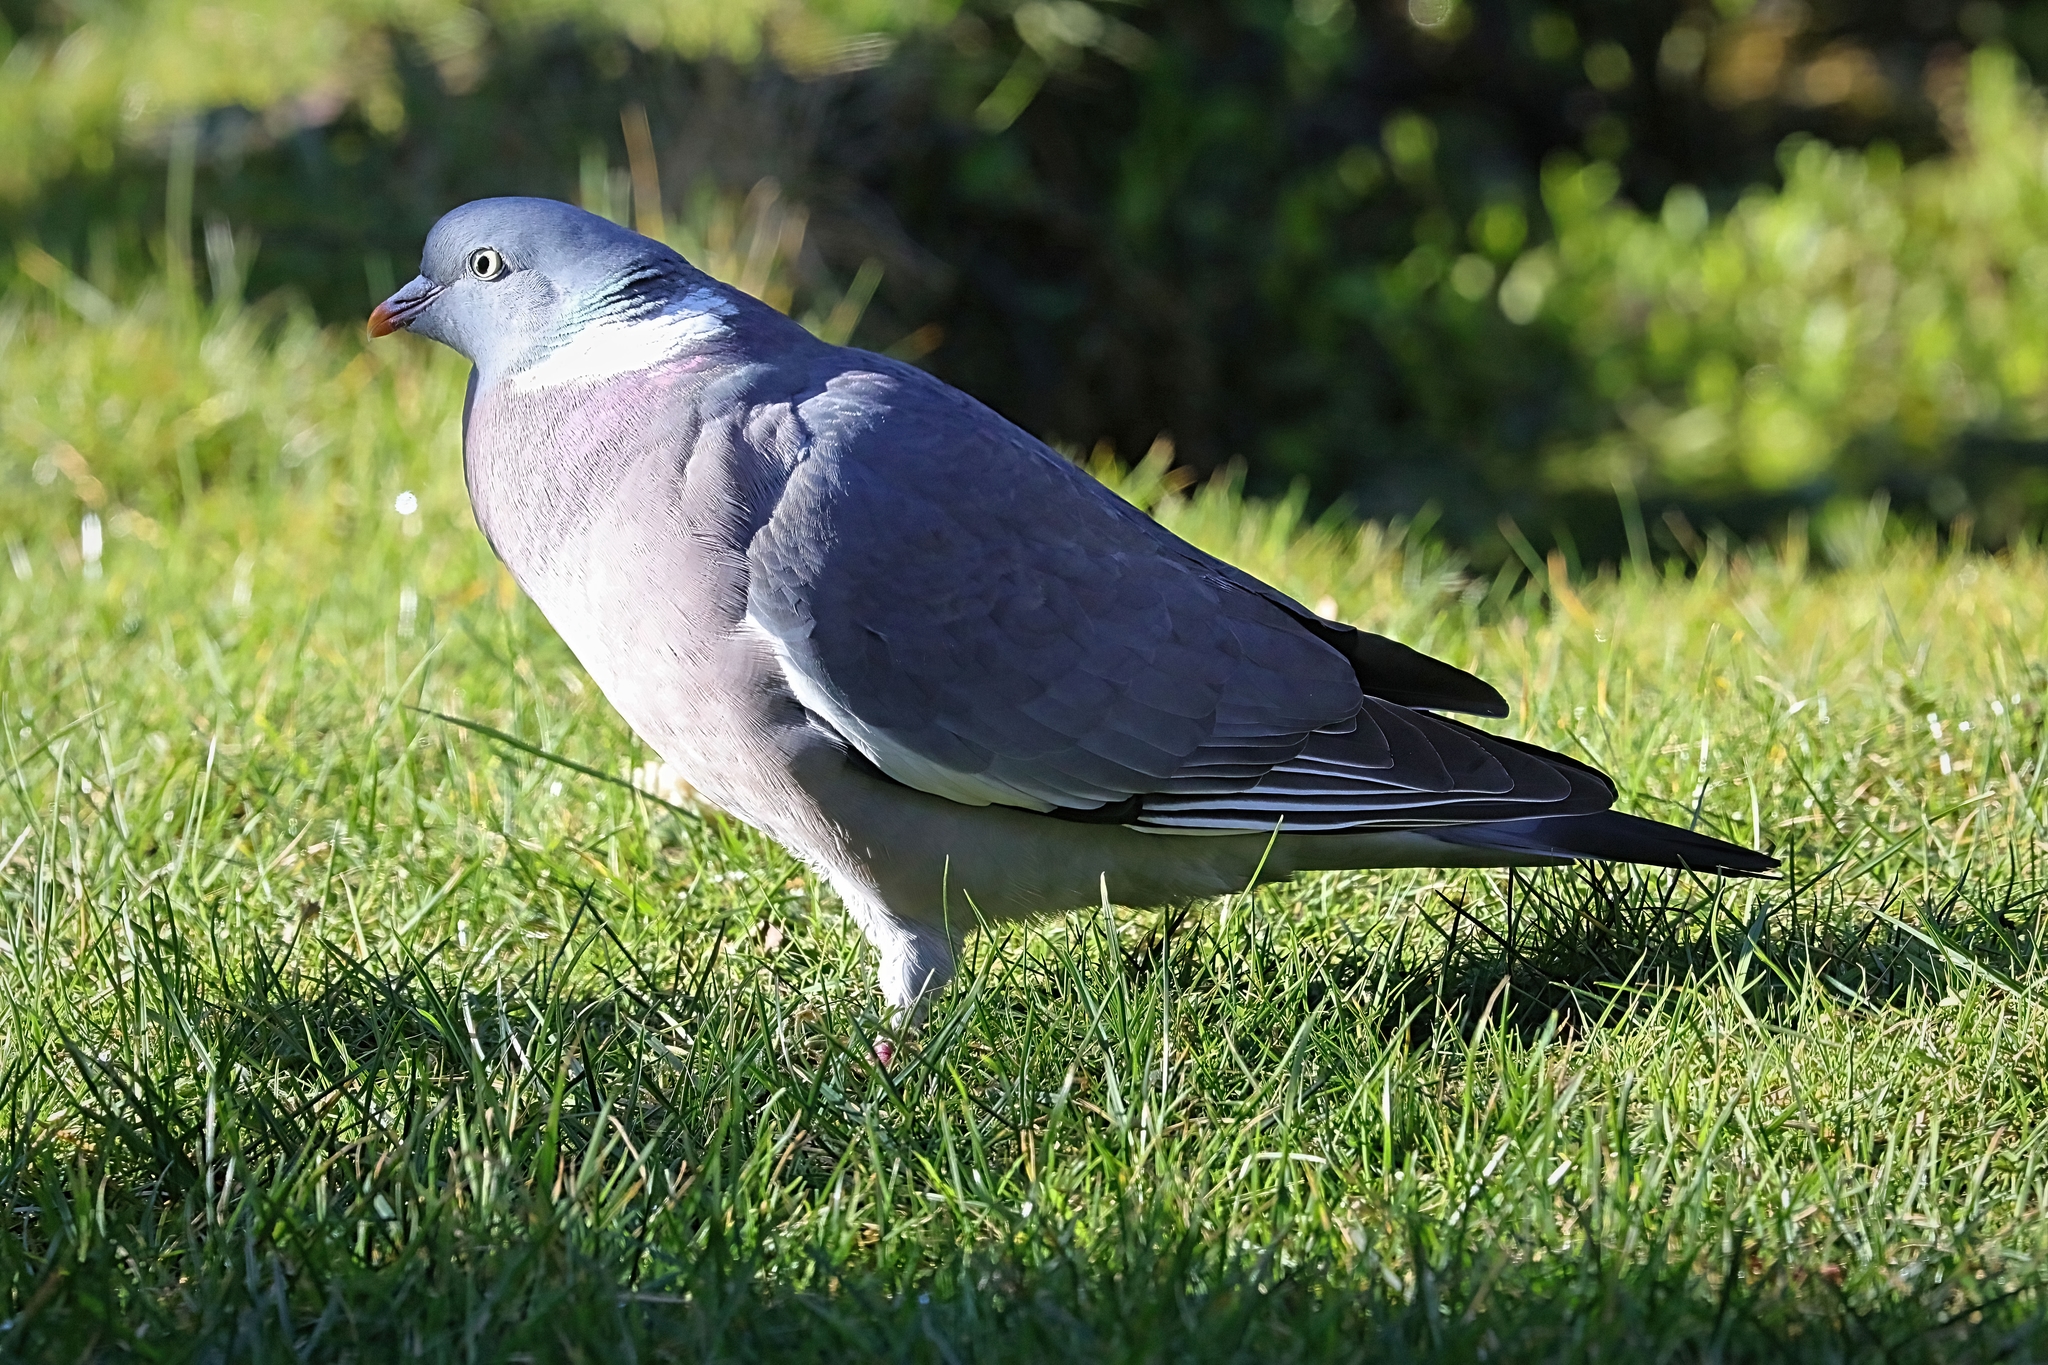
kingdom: Animalia
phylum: Chordata
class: Aves
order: Columbiformes
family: Columbidae
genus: Columba
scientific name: Columba palumbus
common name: Common wood pigeon
